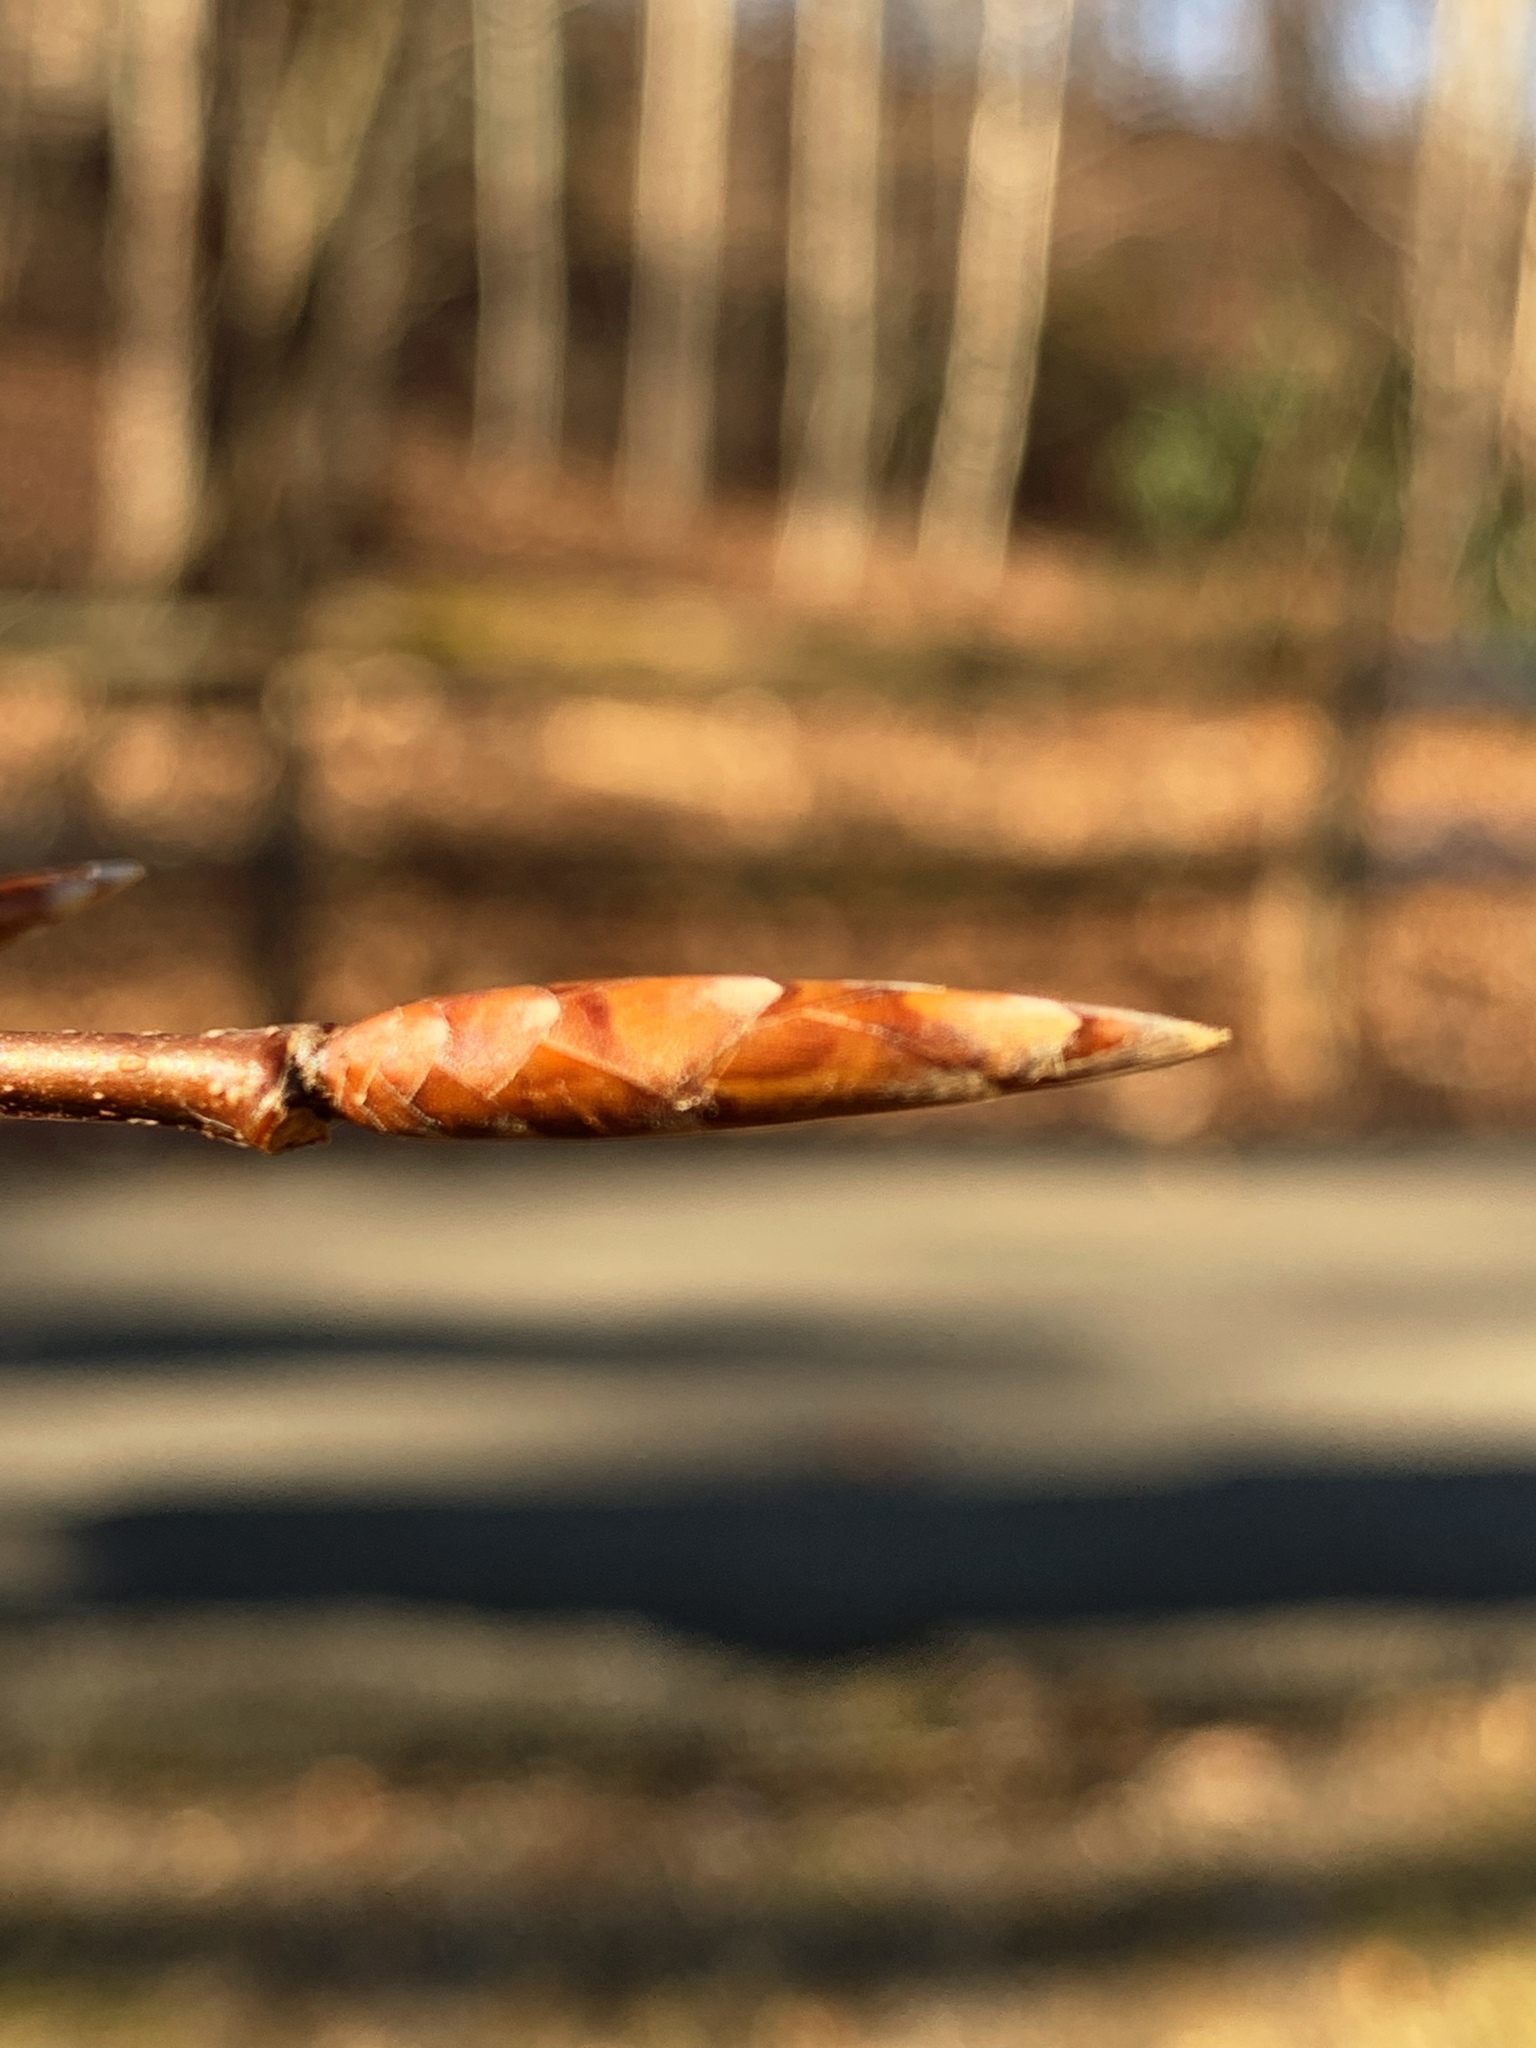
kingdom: Plantae
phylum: Tracheophyta
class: Magnoliopsida
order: Fagales
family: Fagaceae
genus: Fagus
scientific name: Fagus grandifolia
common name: American beech
